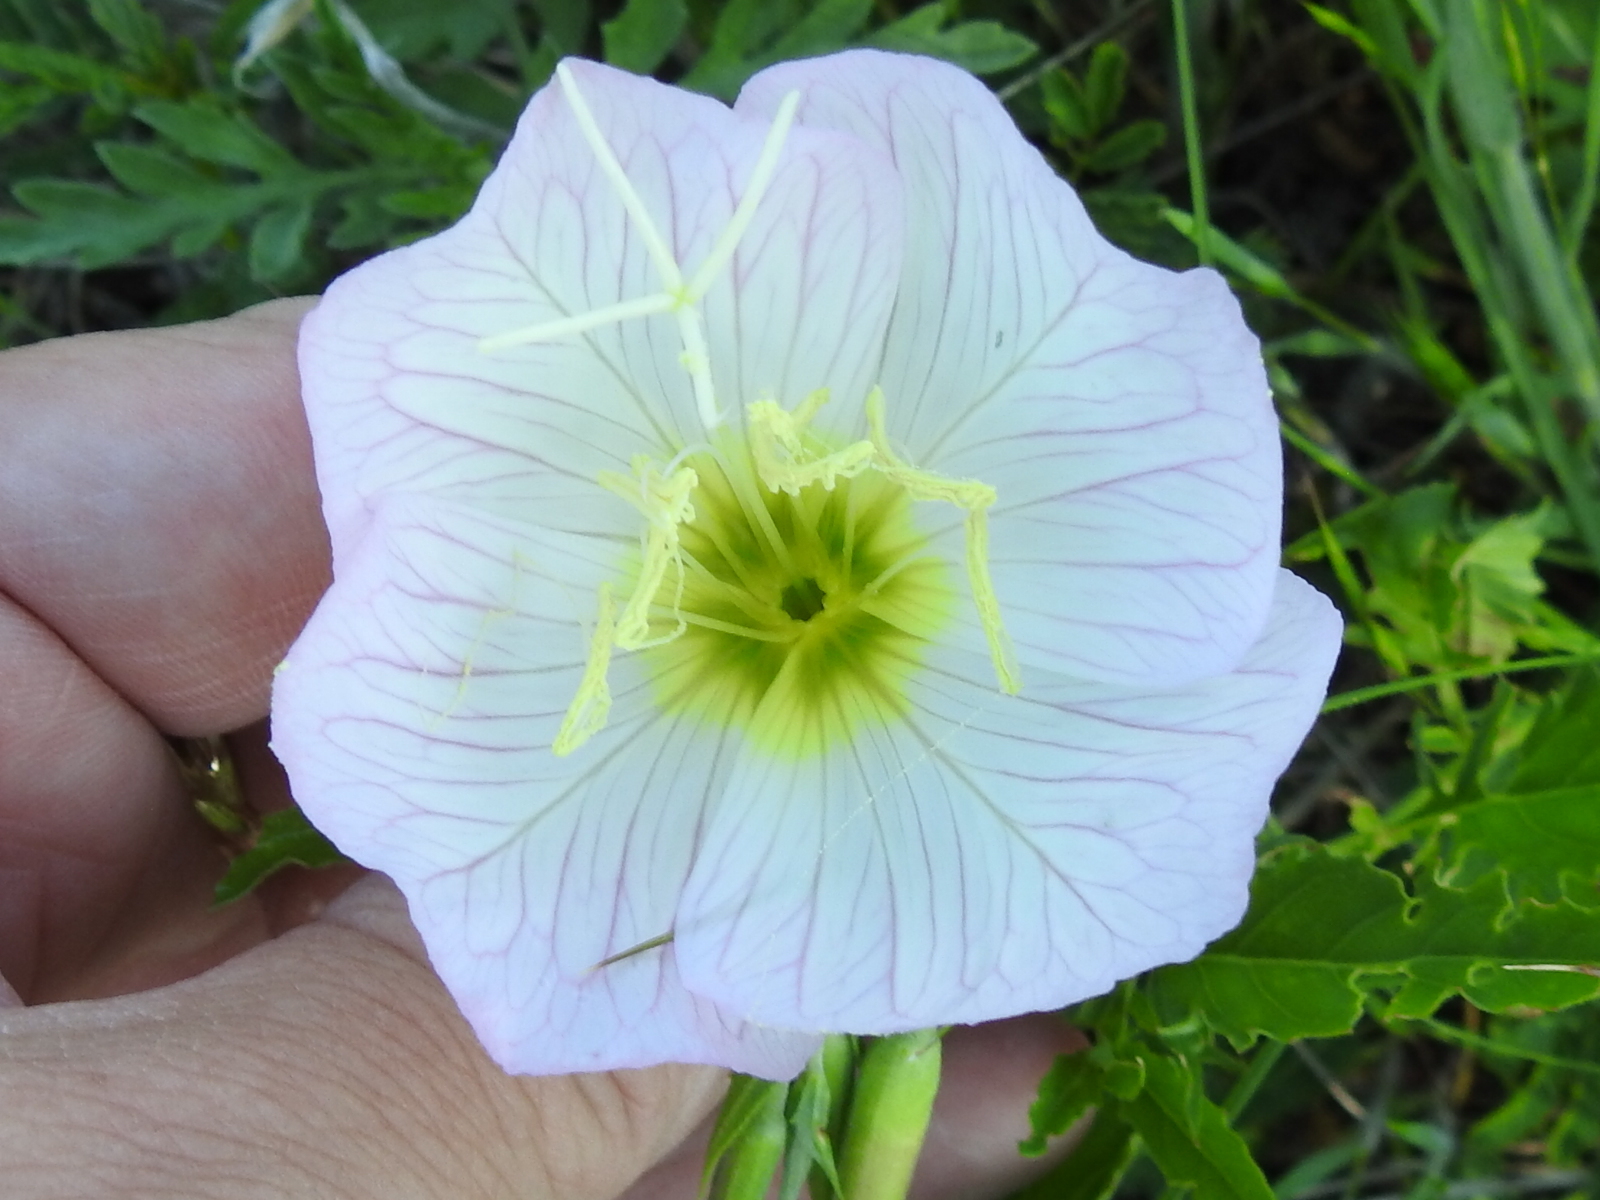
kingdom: Plantae
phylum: Tracheophyta
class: Magnoliopsida
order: Myrtales
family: Onagraceae
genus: Oenothera
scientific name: Oenothera speciosa
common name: White evening-primrose
